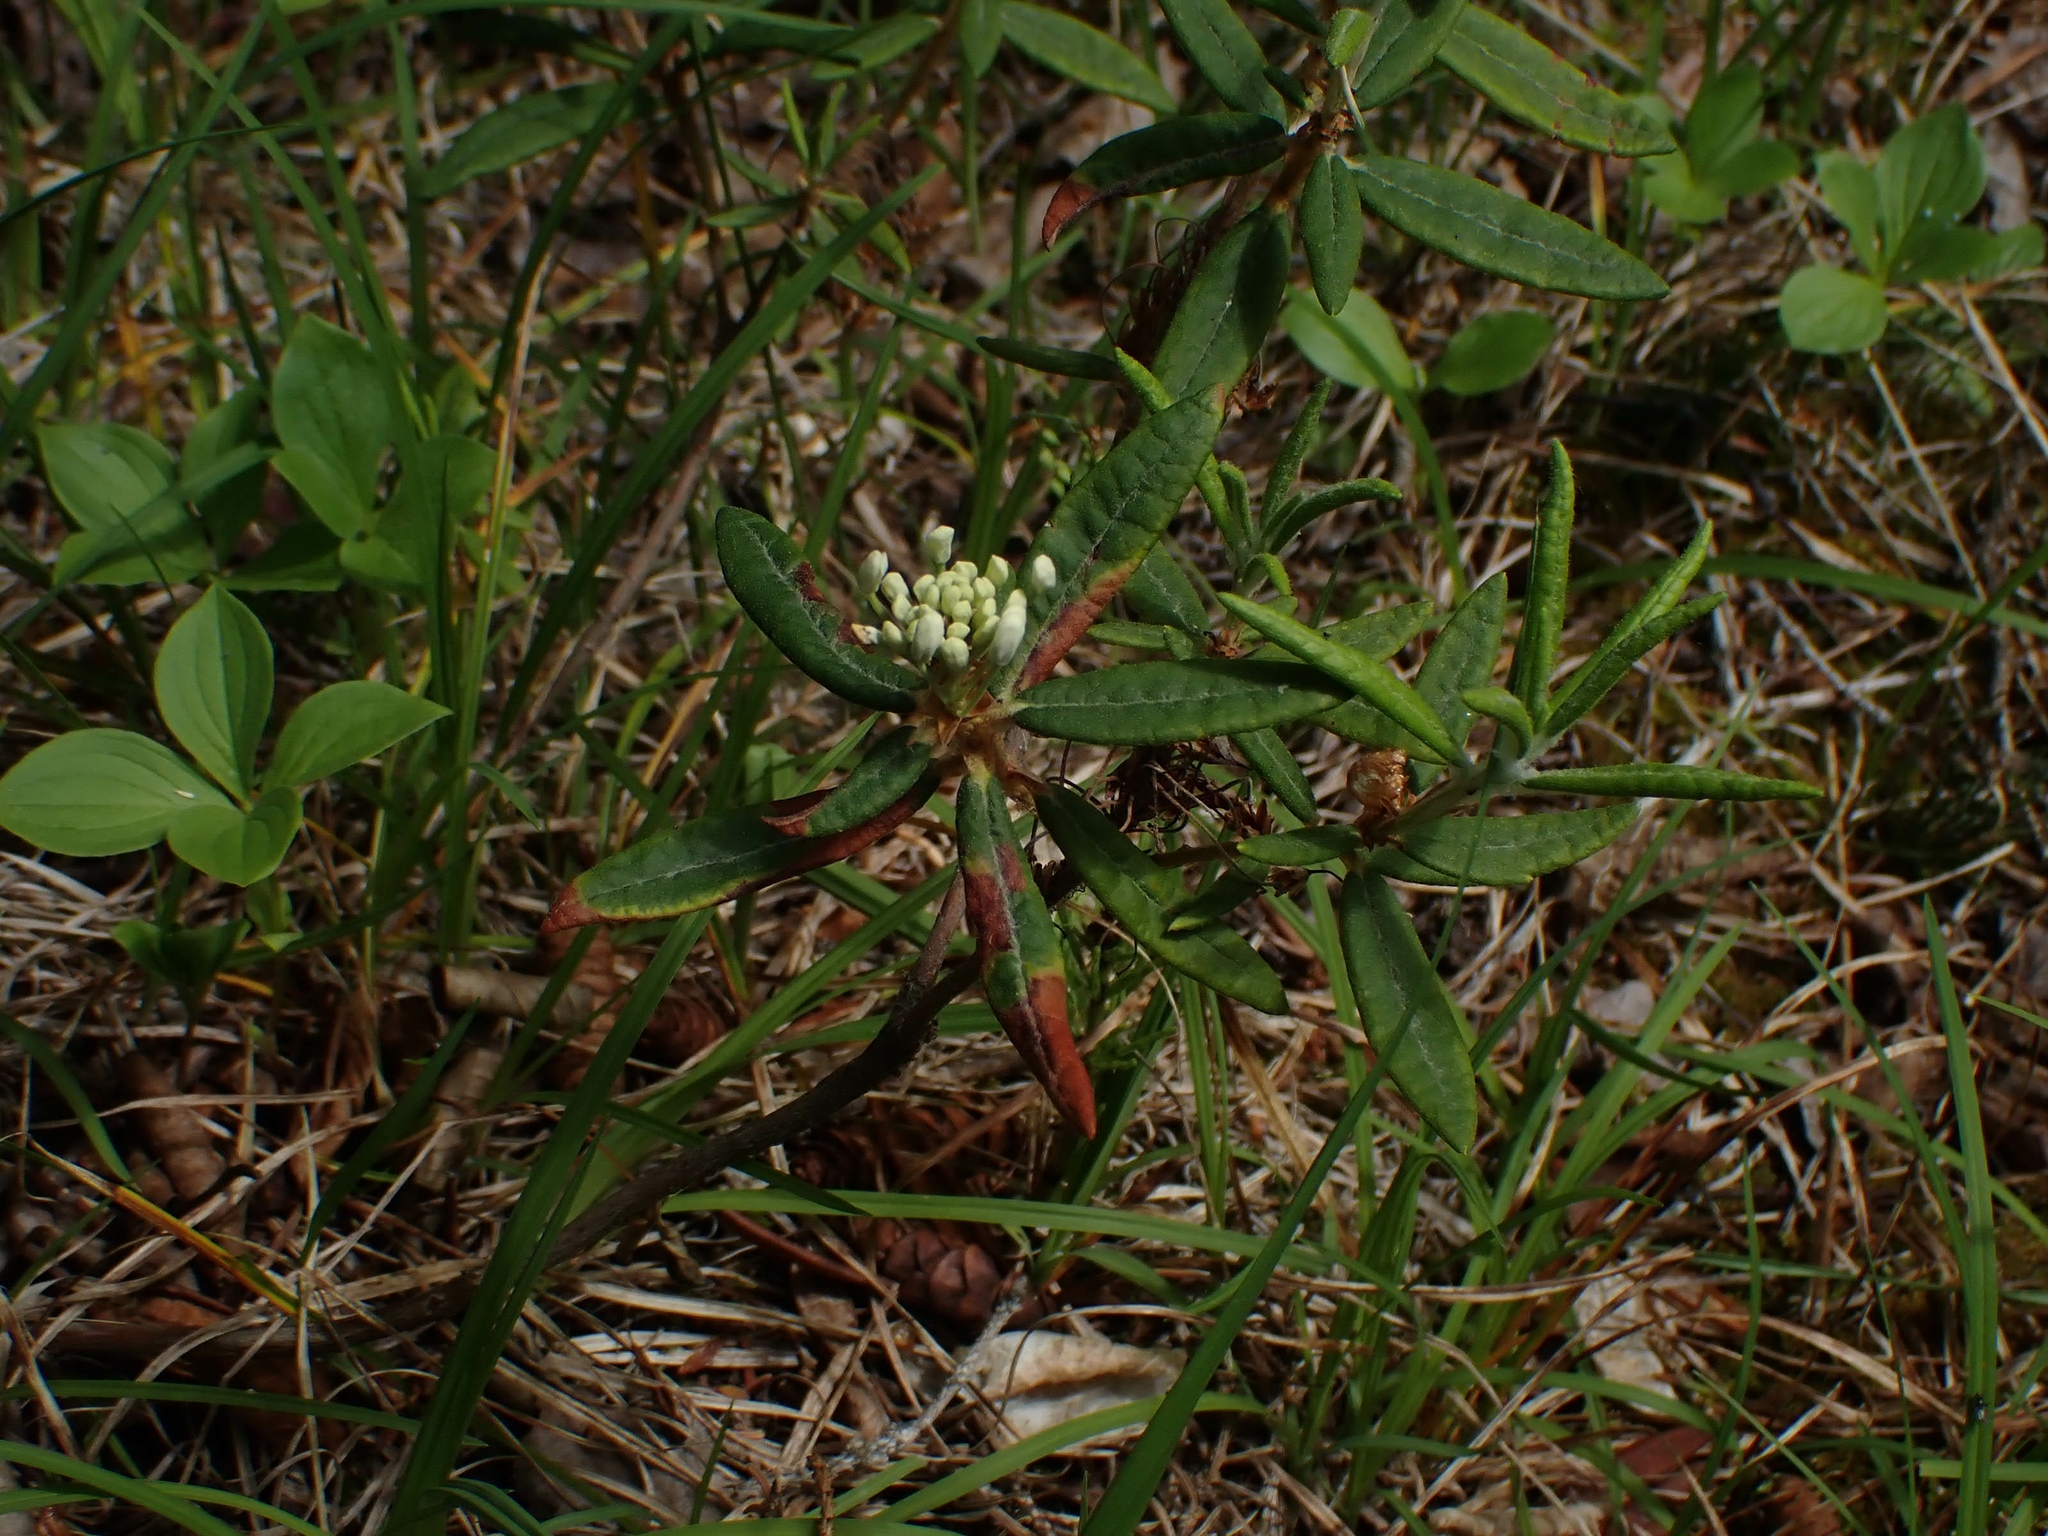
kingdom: Plantae
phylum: Tracheophyta
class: Magnoliopsida
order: Ericales
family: Ericaceae
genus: Rhododendron
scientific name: Rhododendron groenlandicum
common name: Bog labrador tea
